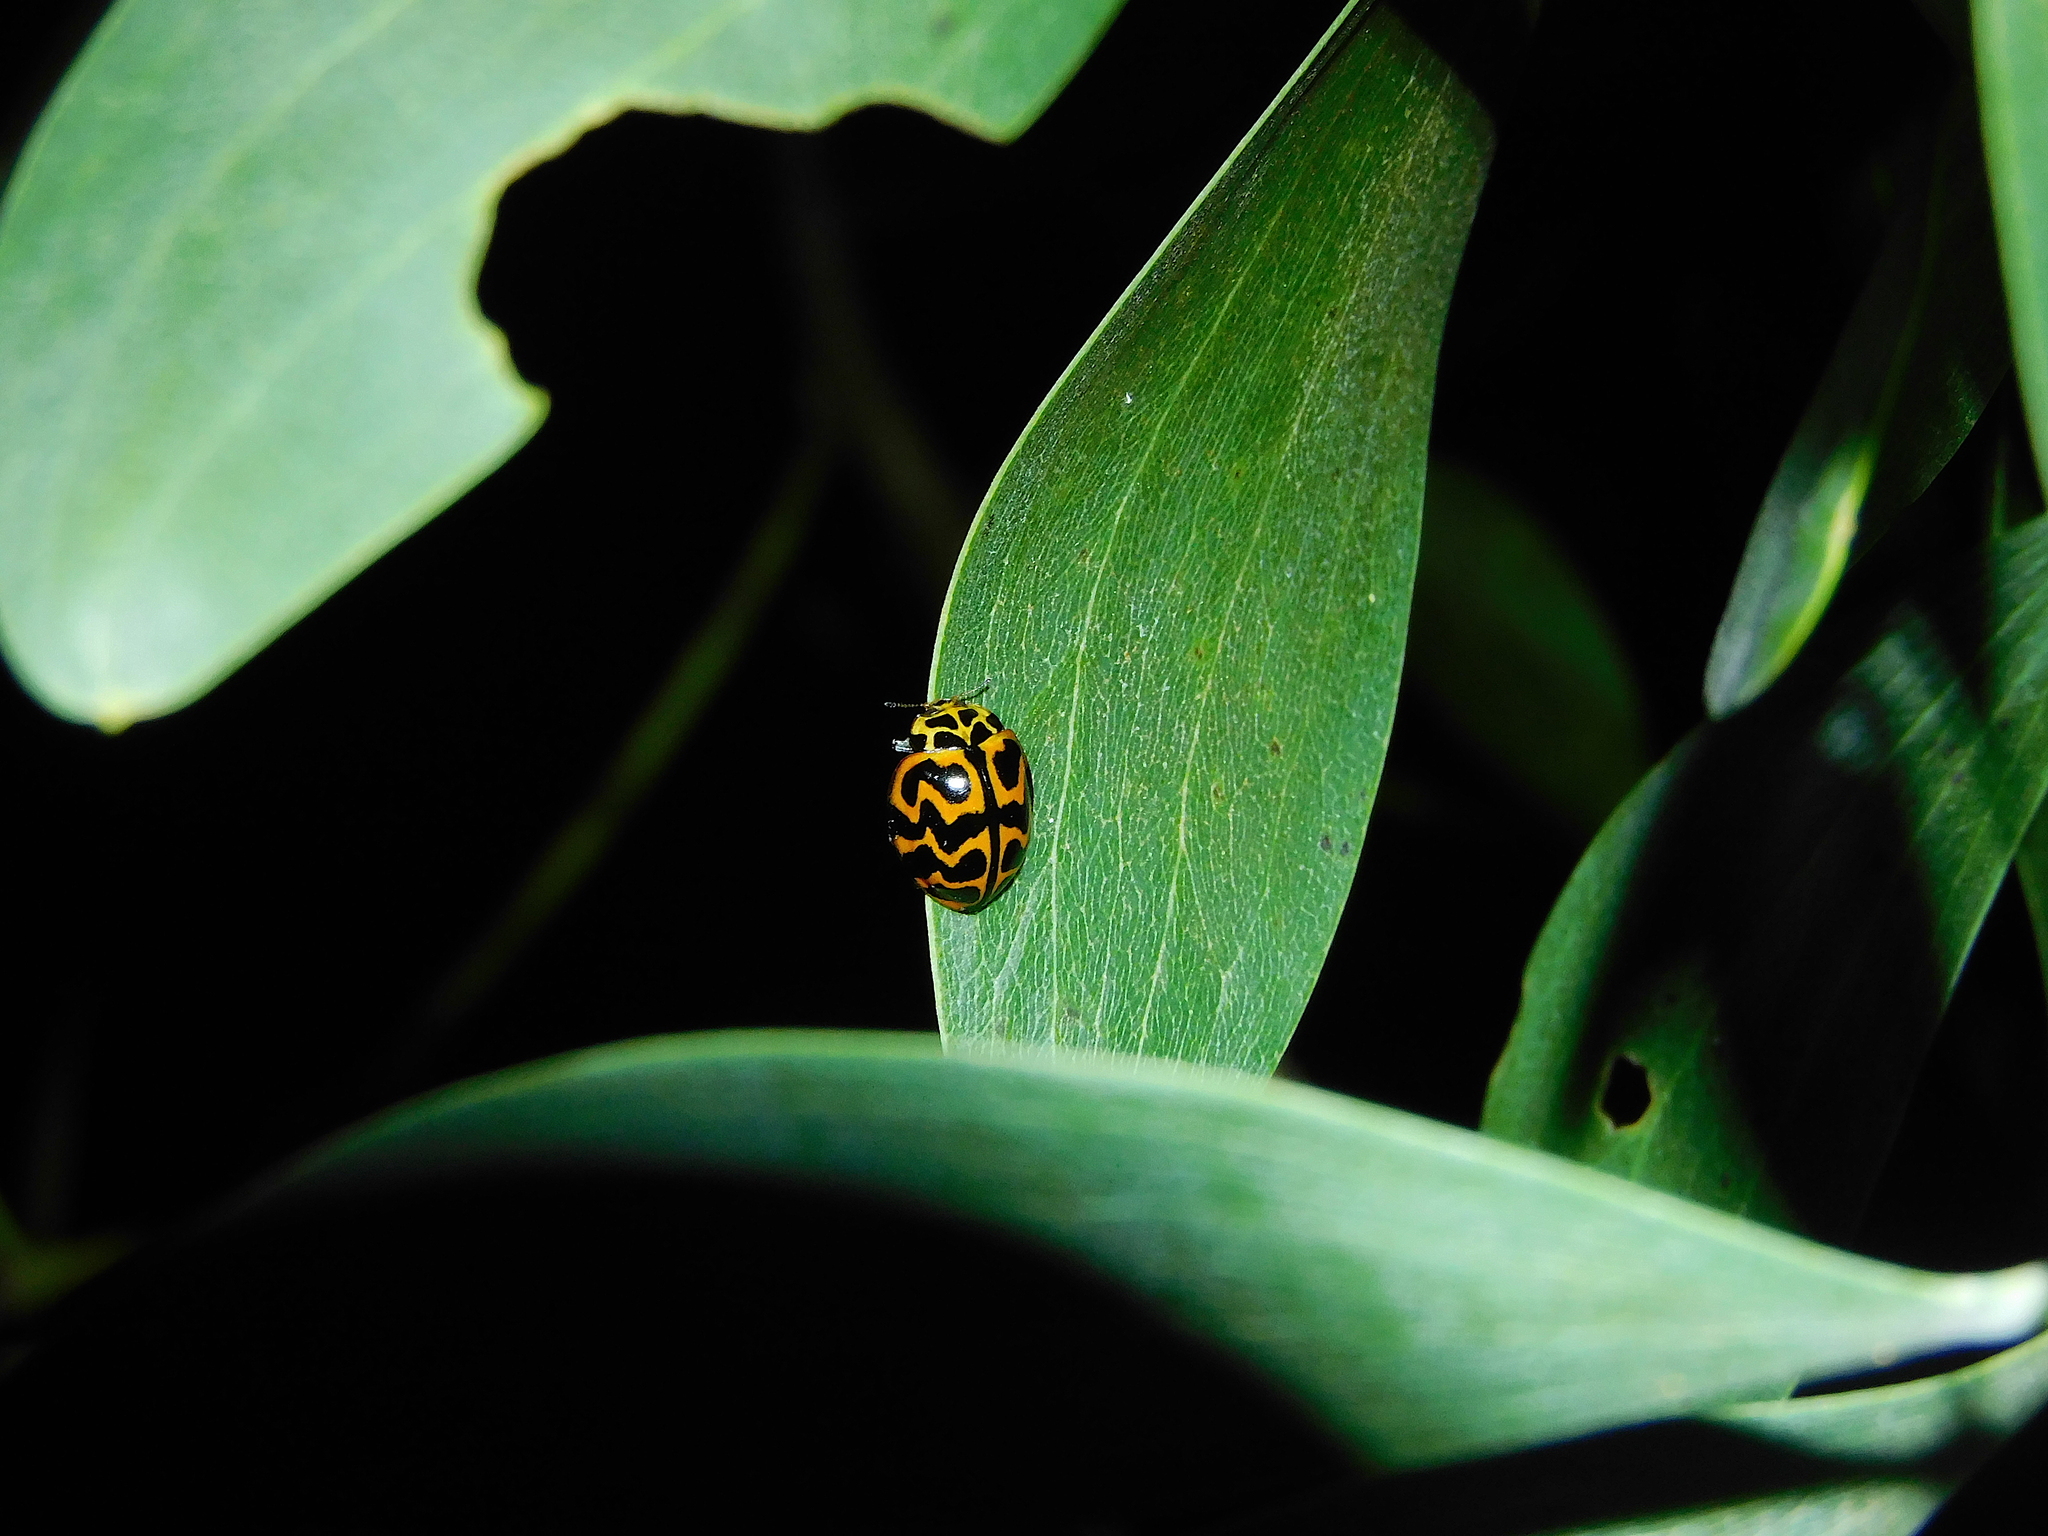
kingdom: Animalia
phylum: Arthropoda
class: Insecta
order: Coleoptera
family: Coccinellidae
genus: Cleobora
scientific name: Cleobora
